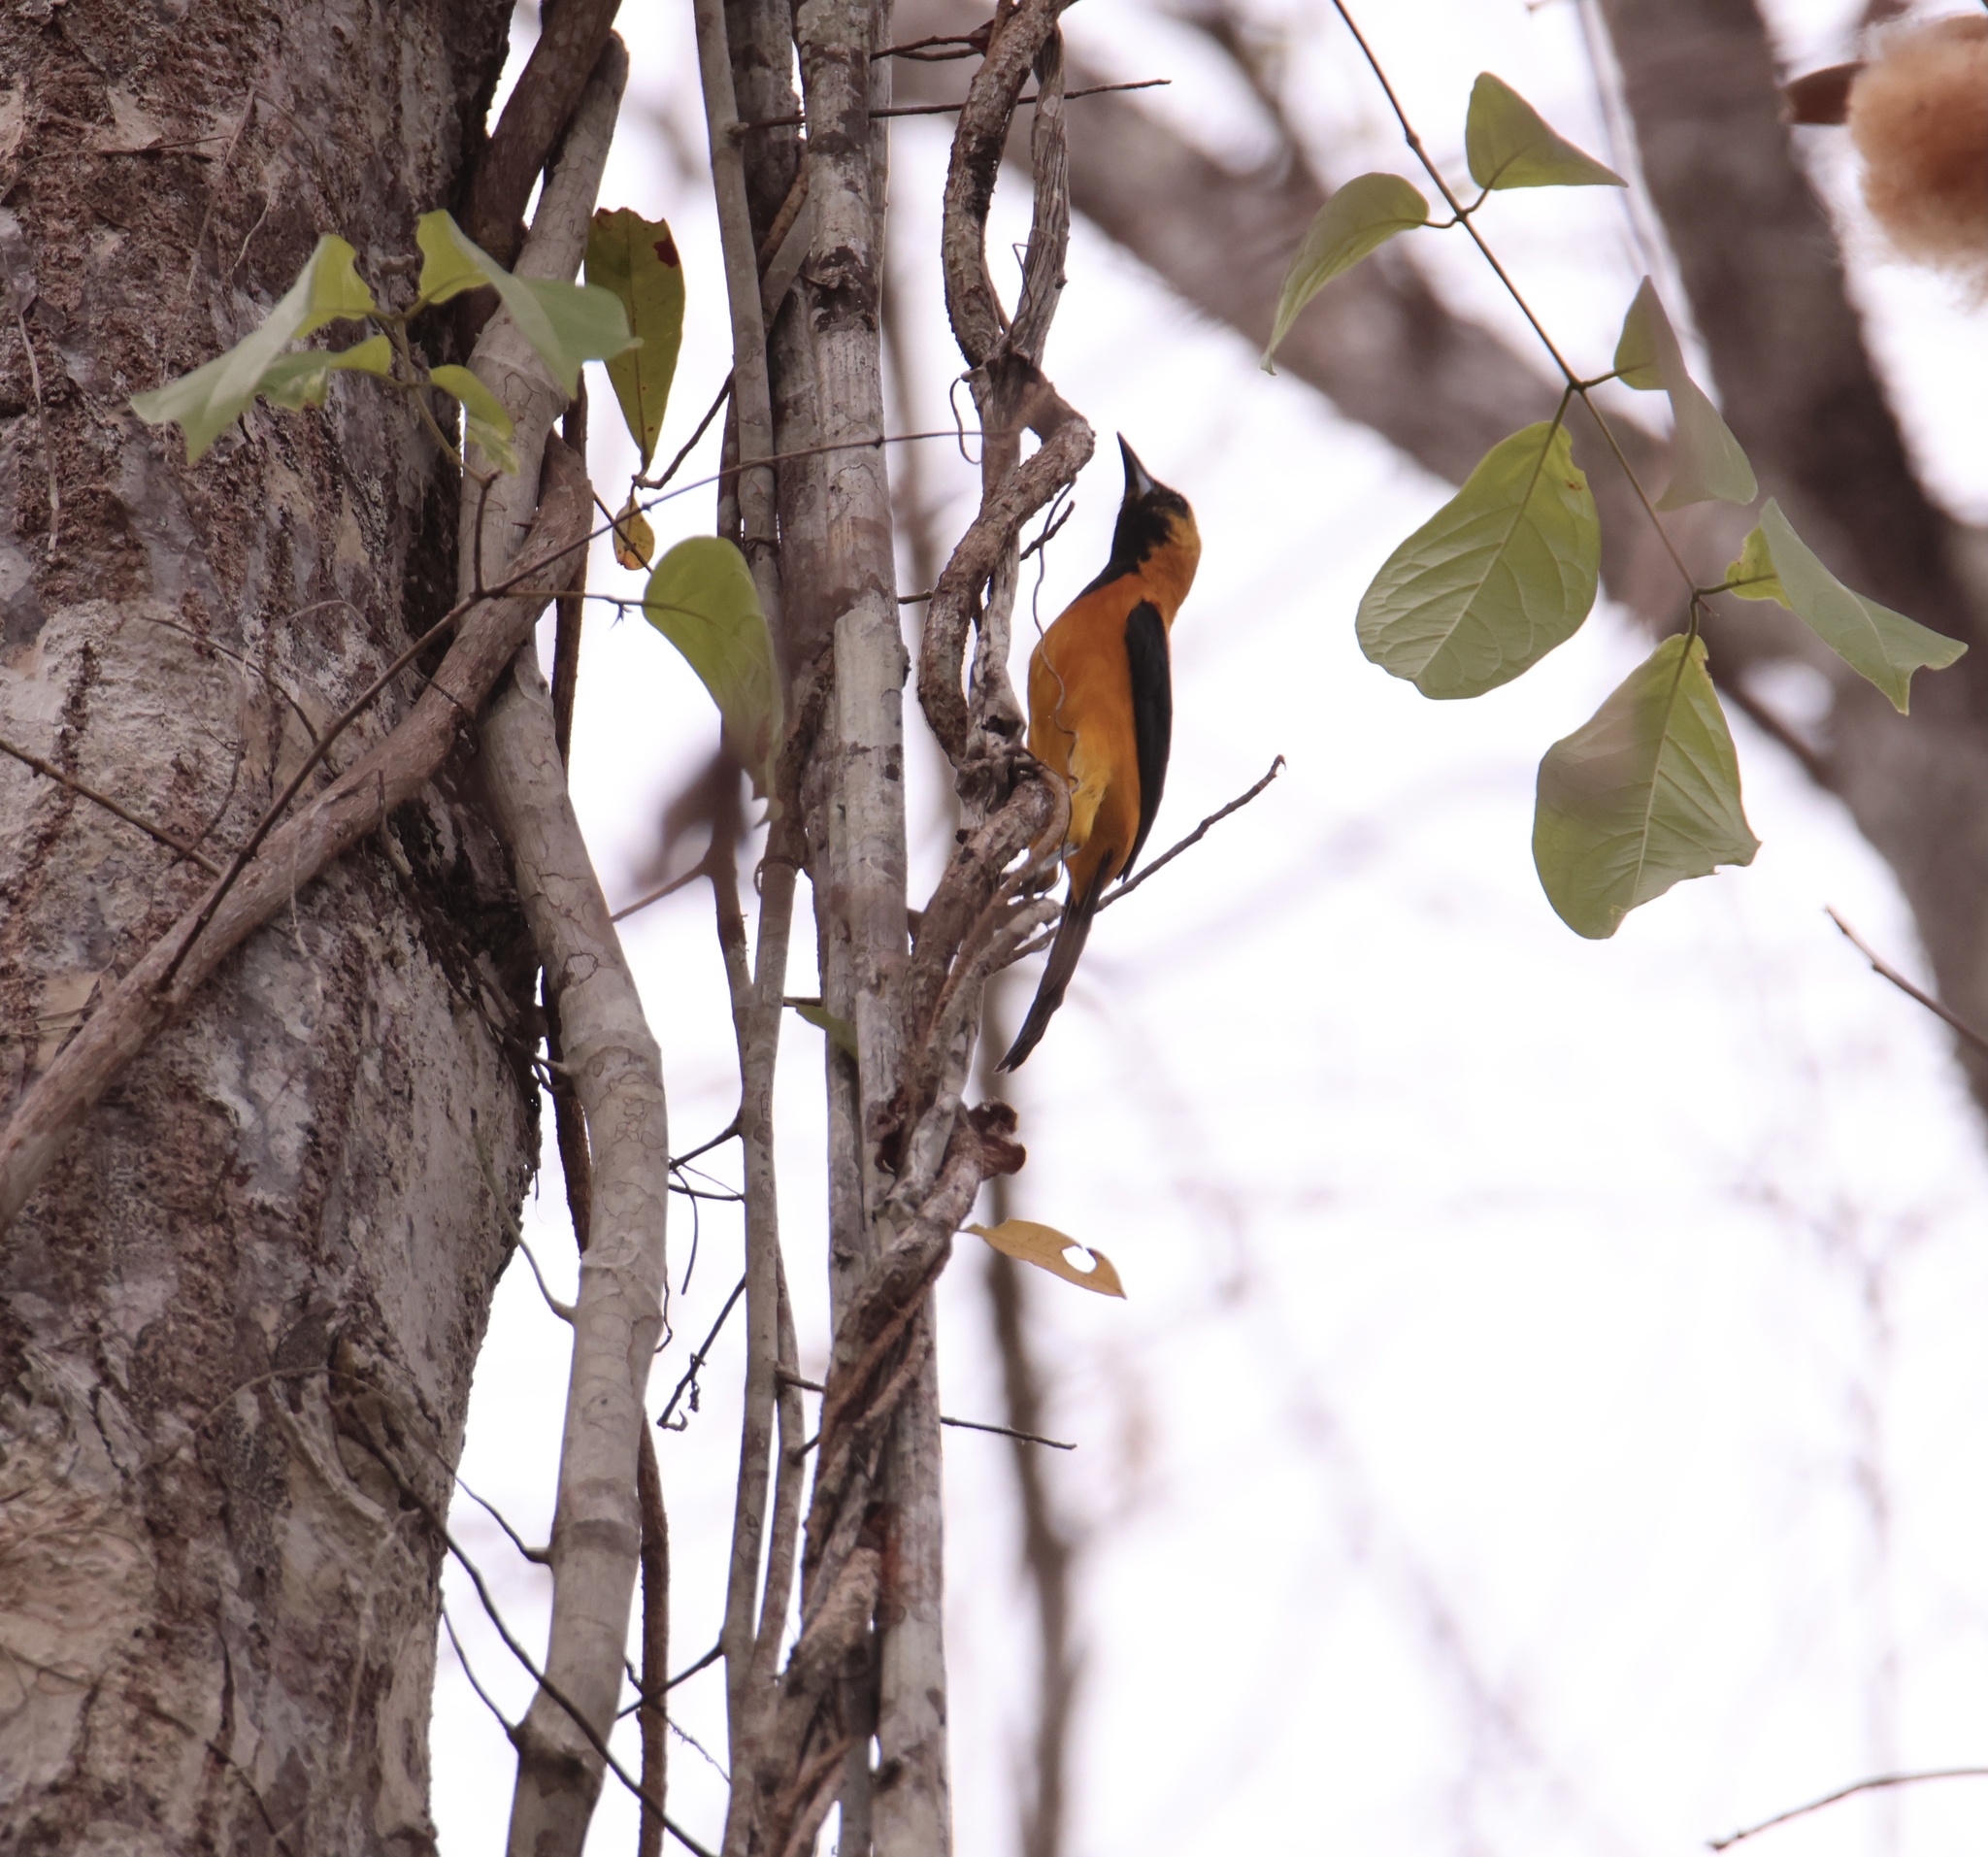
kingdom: Animalia
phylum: Chordata
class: Aves
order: Passeriformes
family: Icteridae
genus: Icterus
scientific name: Icterus chrysater
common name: Yellow-backed oriole
